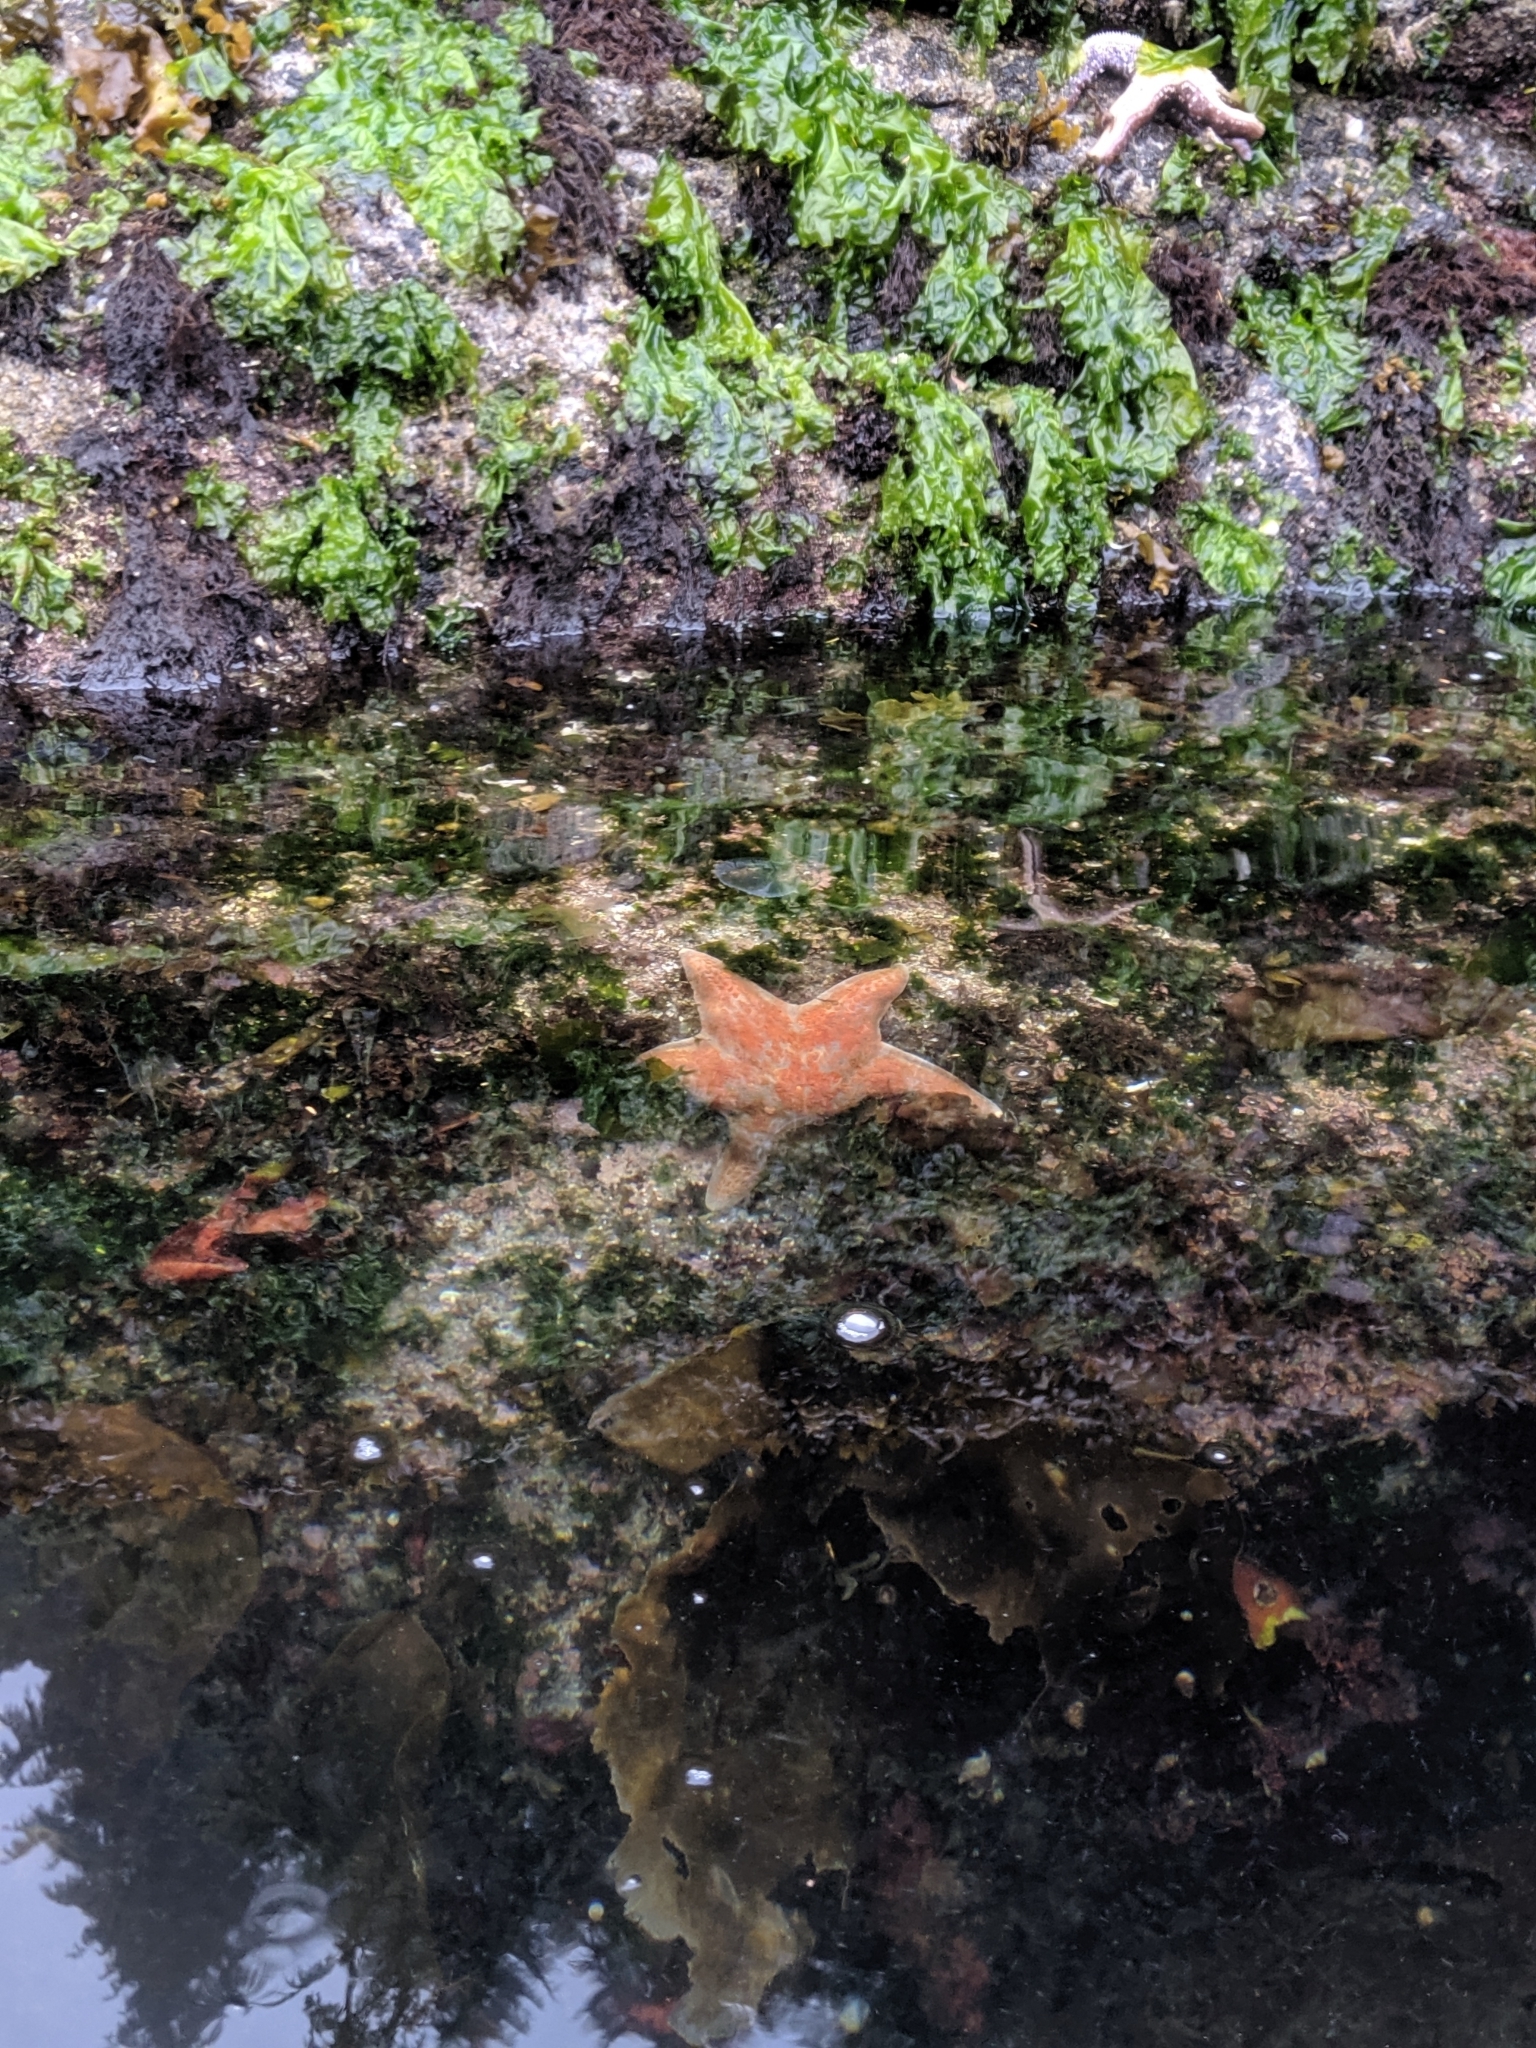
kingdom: Animalia
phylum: Echinodermata
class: Asteroidea
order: Valvatida
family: Asteropseidae
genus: Dermasterias
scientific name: Dermasterias imbricata
